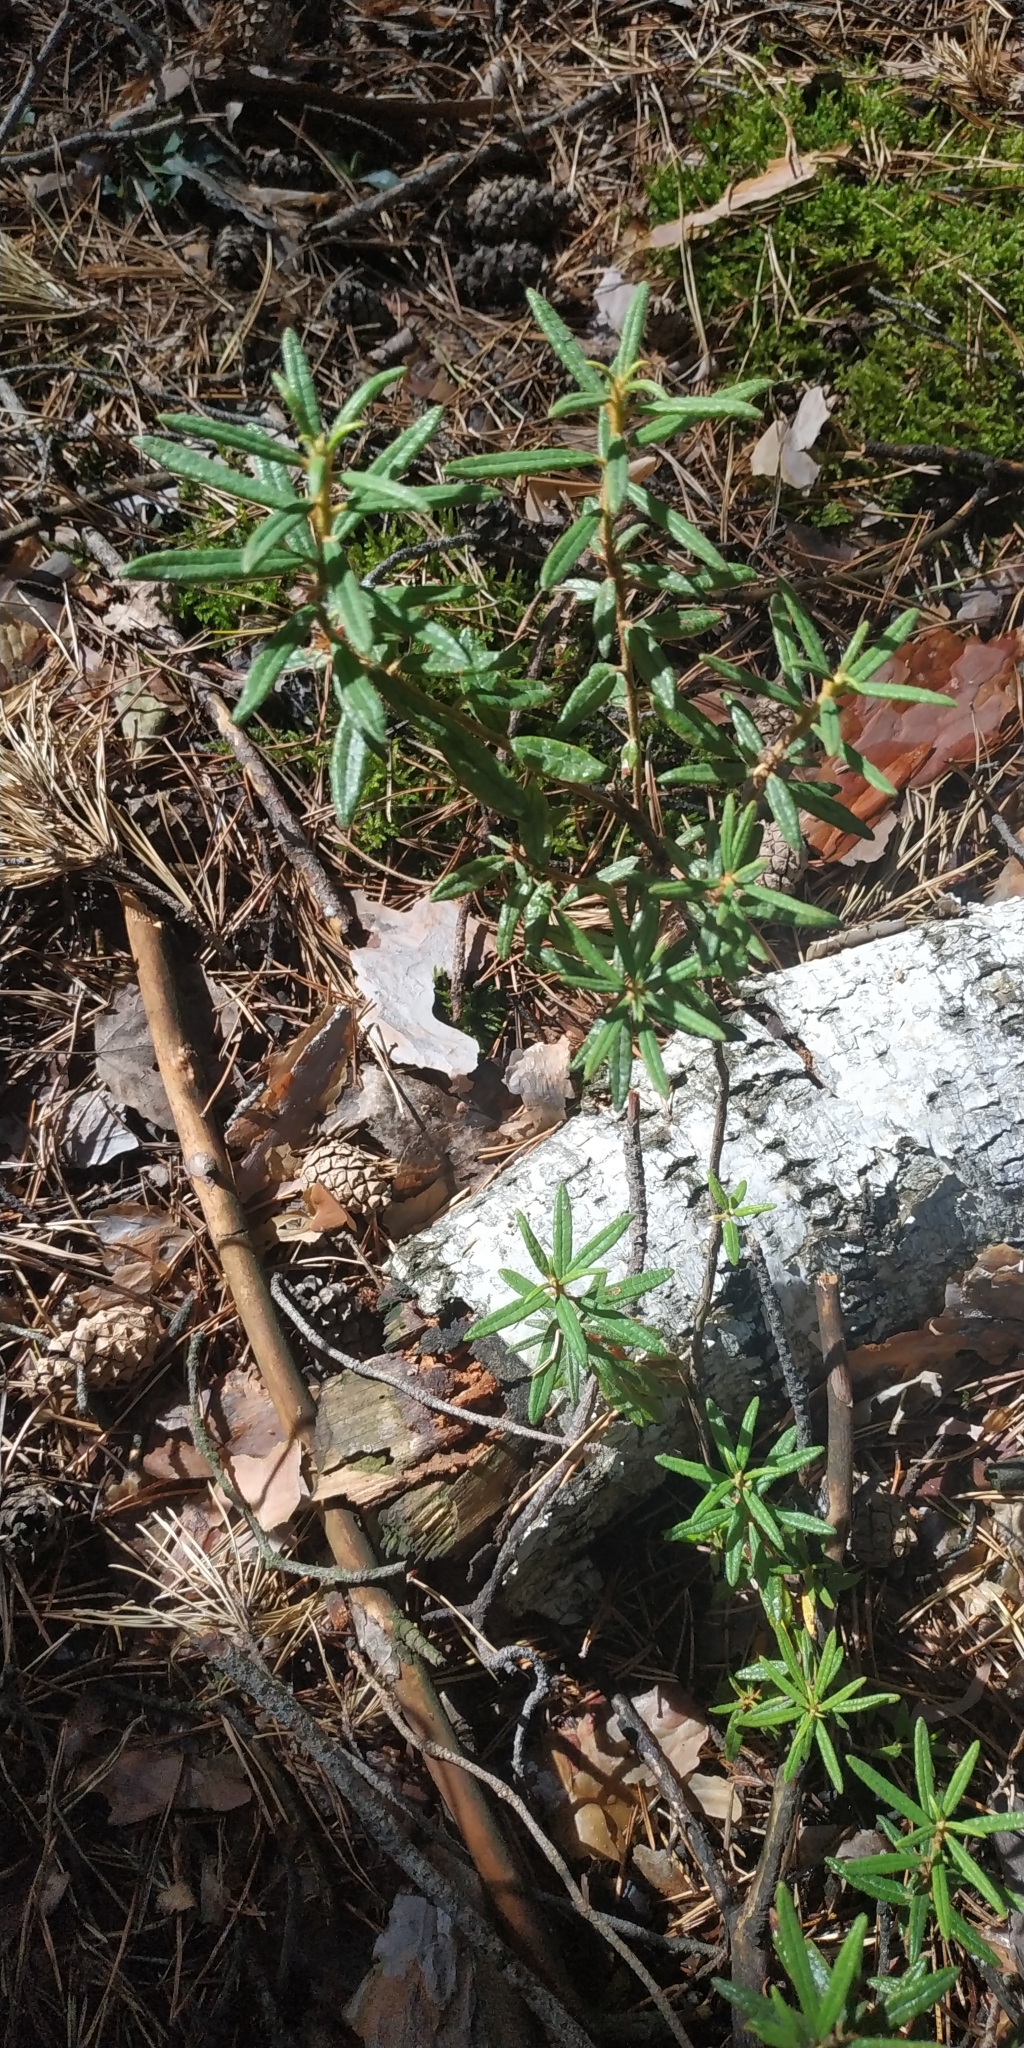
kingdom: Plantae
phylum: Tracheophyta
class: Magnoliopsida
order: Ericales
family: Ericaceae
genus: Rhododendron
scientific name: Rhododendron tomentosum
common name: Marsh labrador tea
